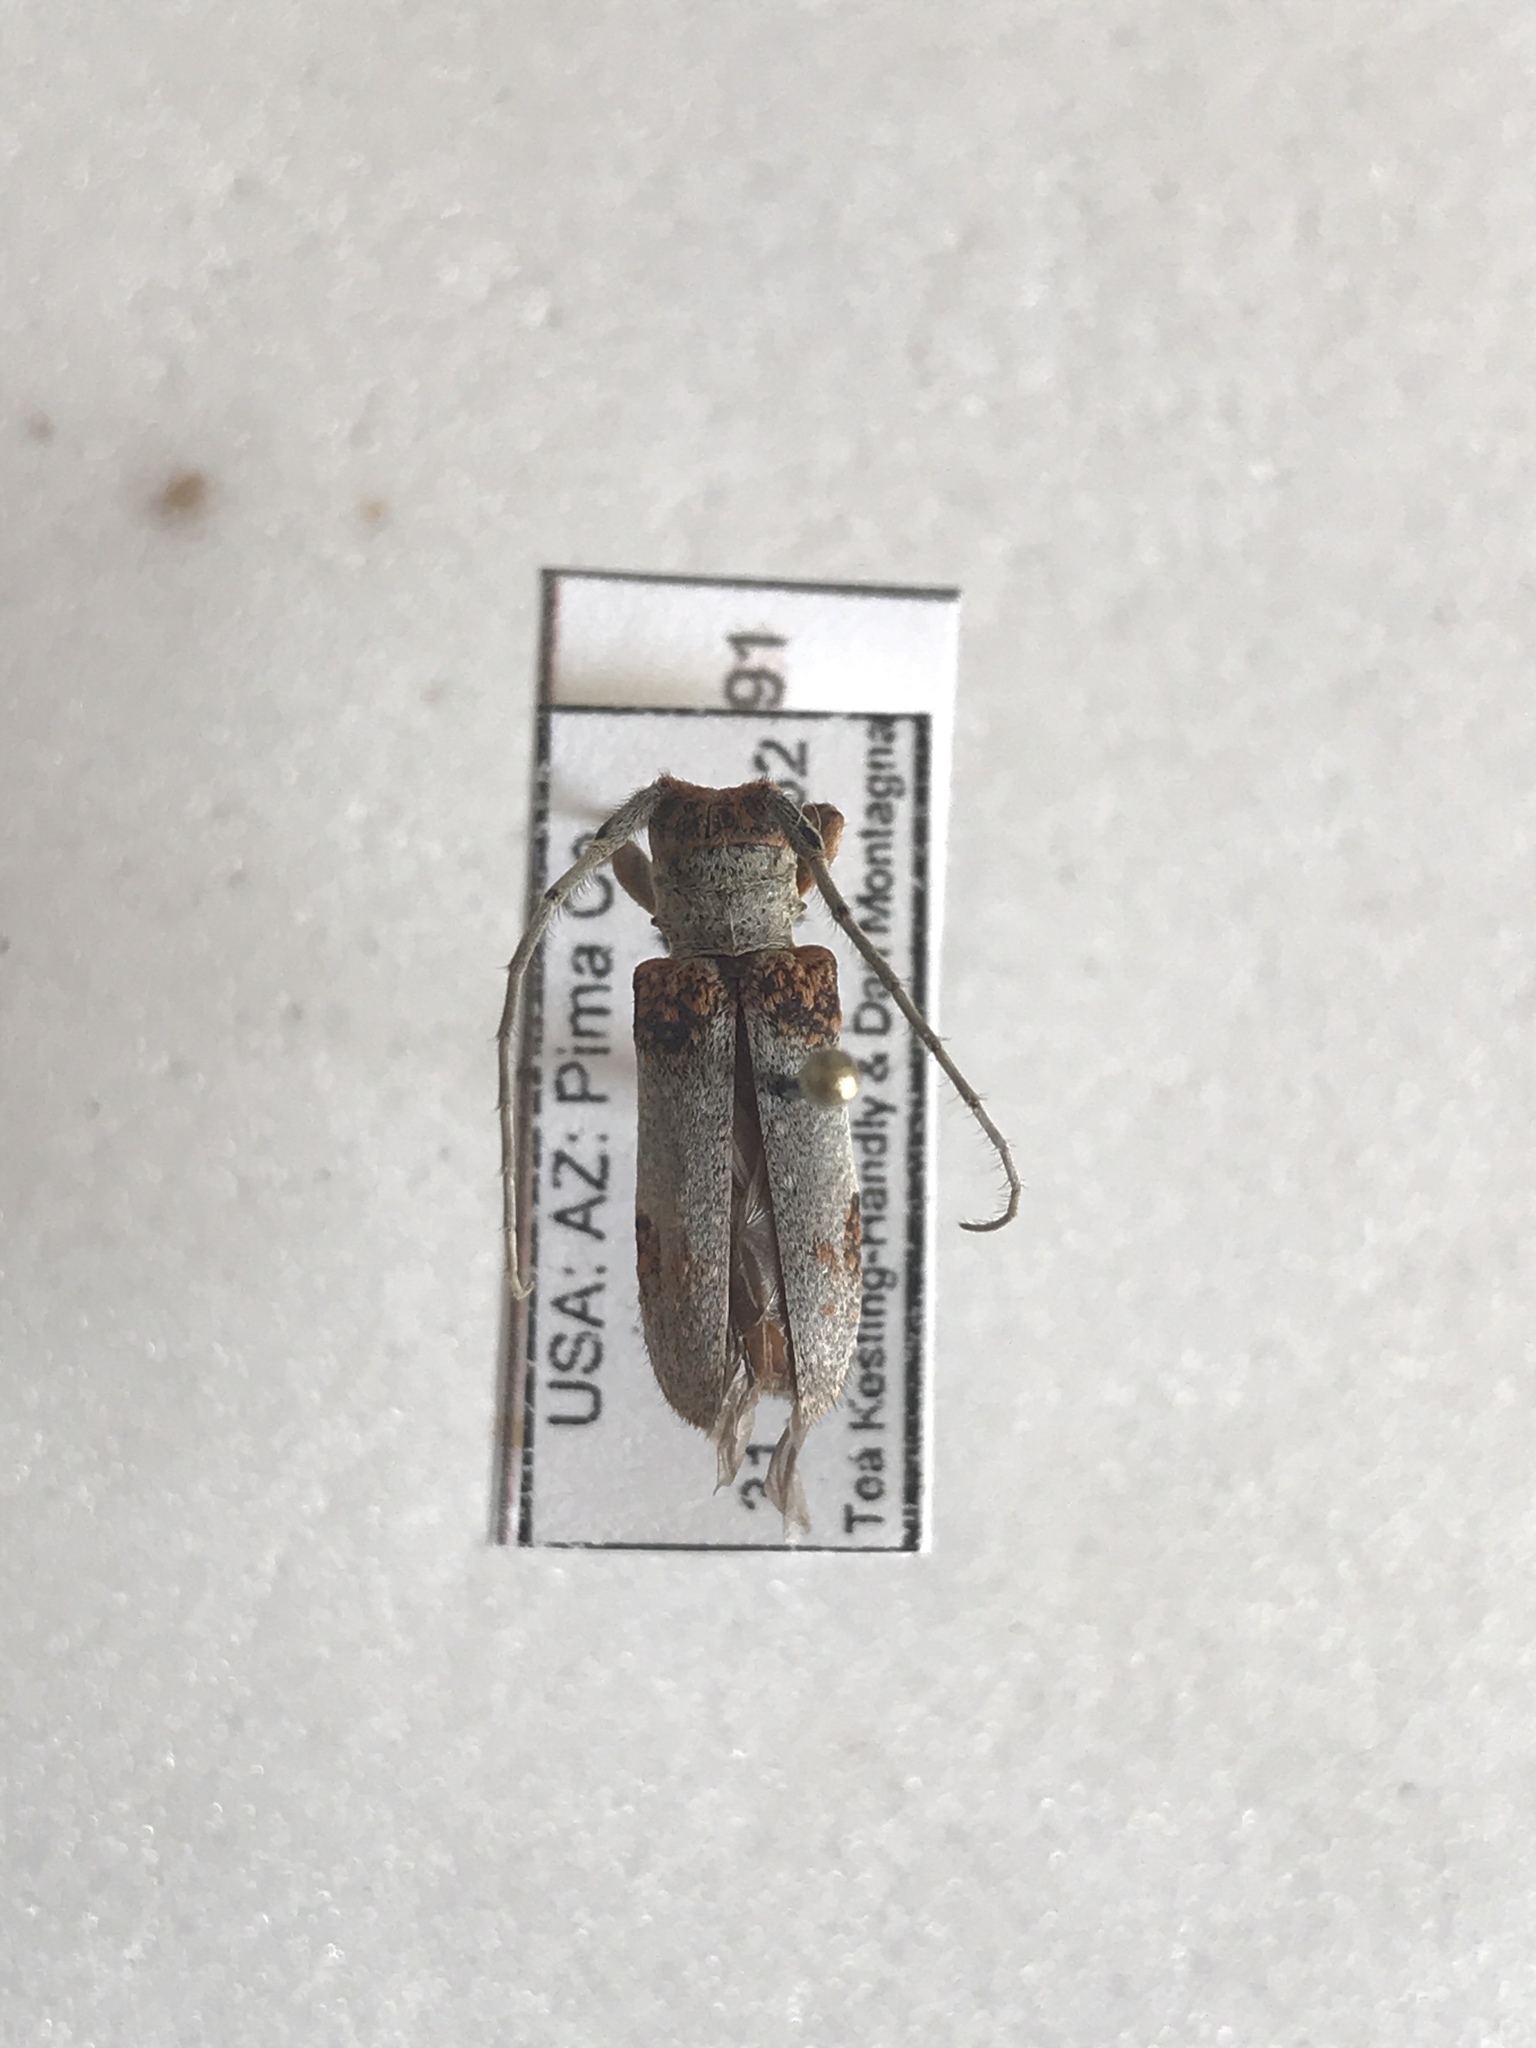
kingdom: Animalia
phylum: Arthropoda
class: Insecta
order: Coleoptera
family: Cerambycidae
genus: Oncideres
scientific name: Oncideres quercus
